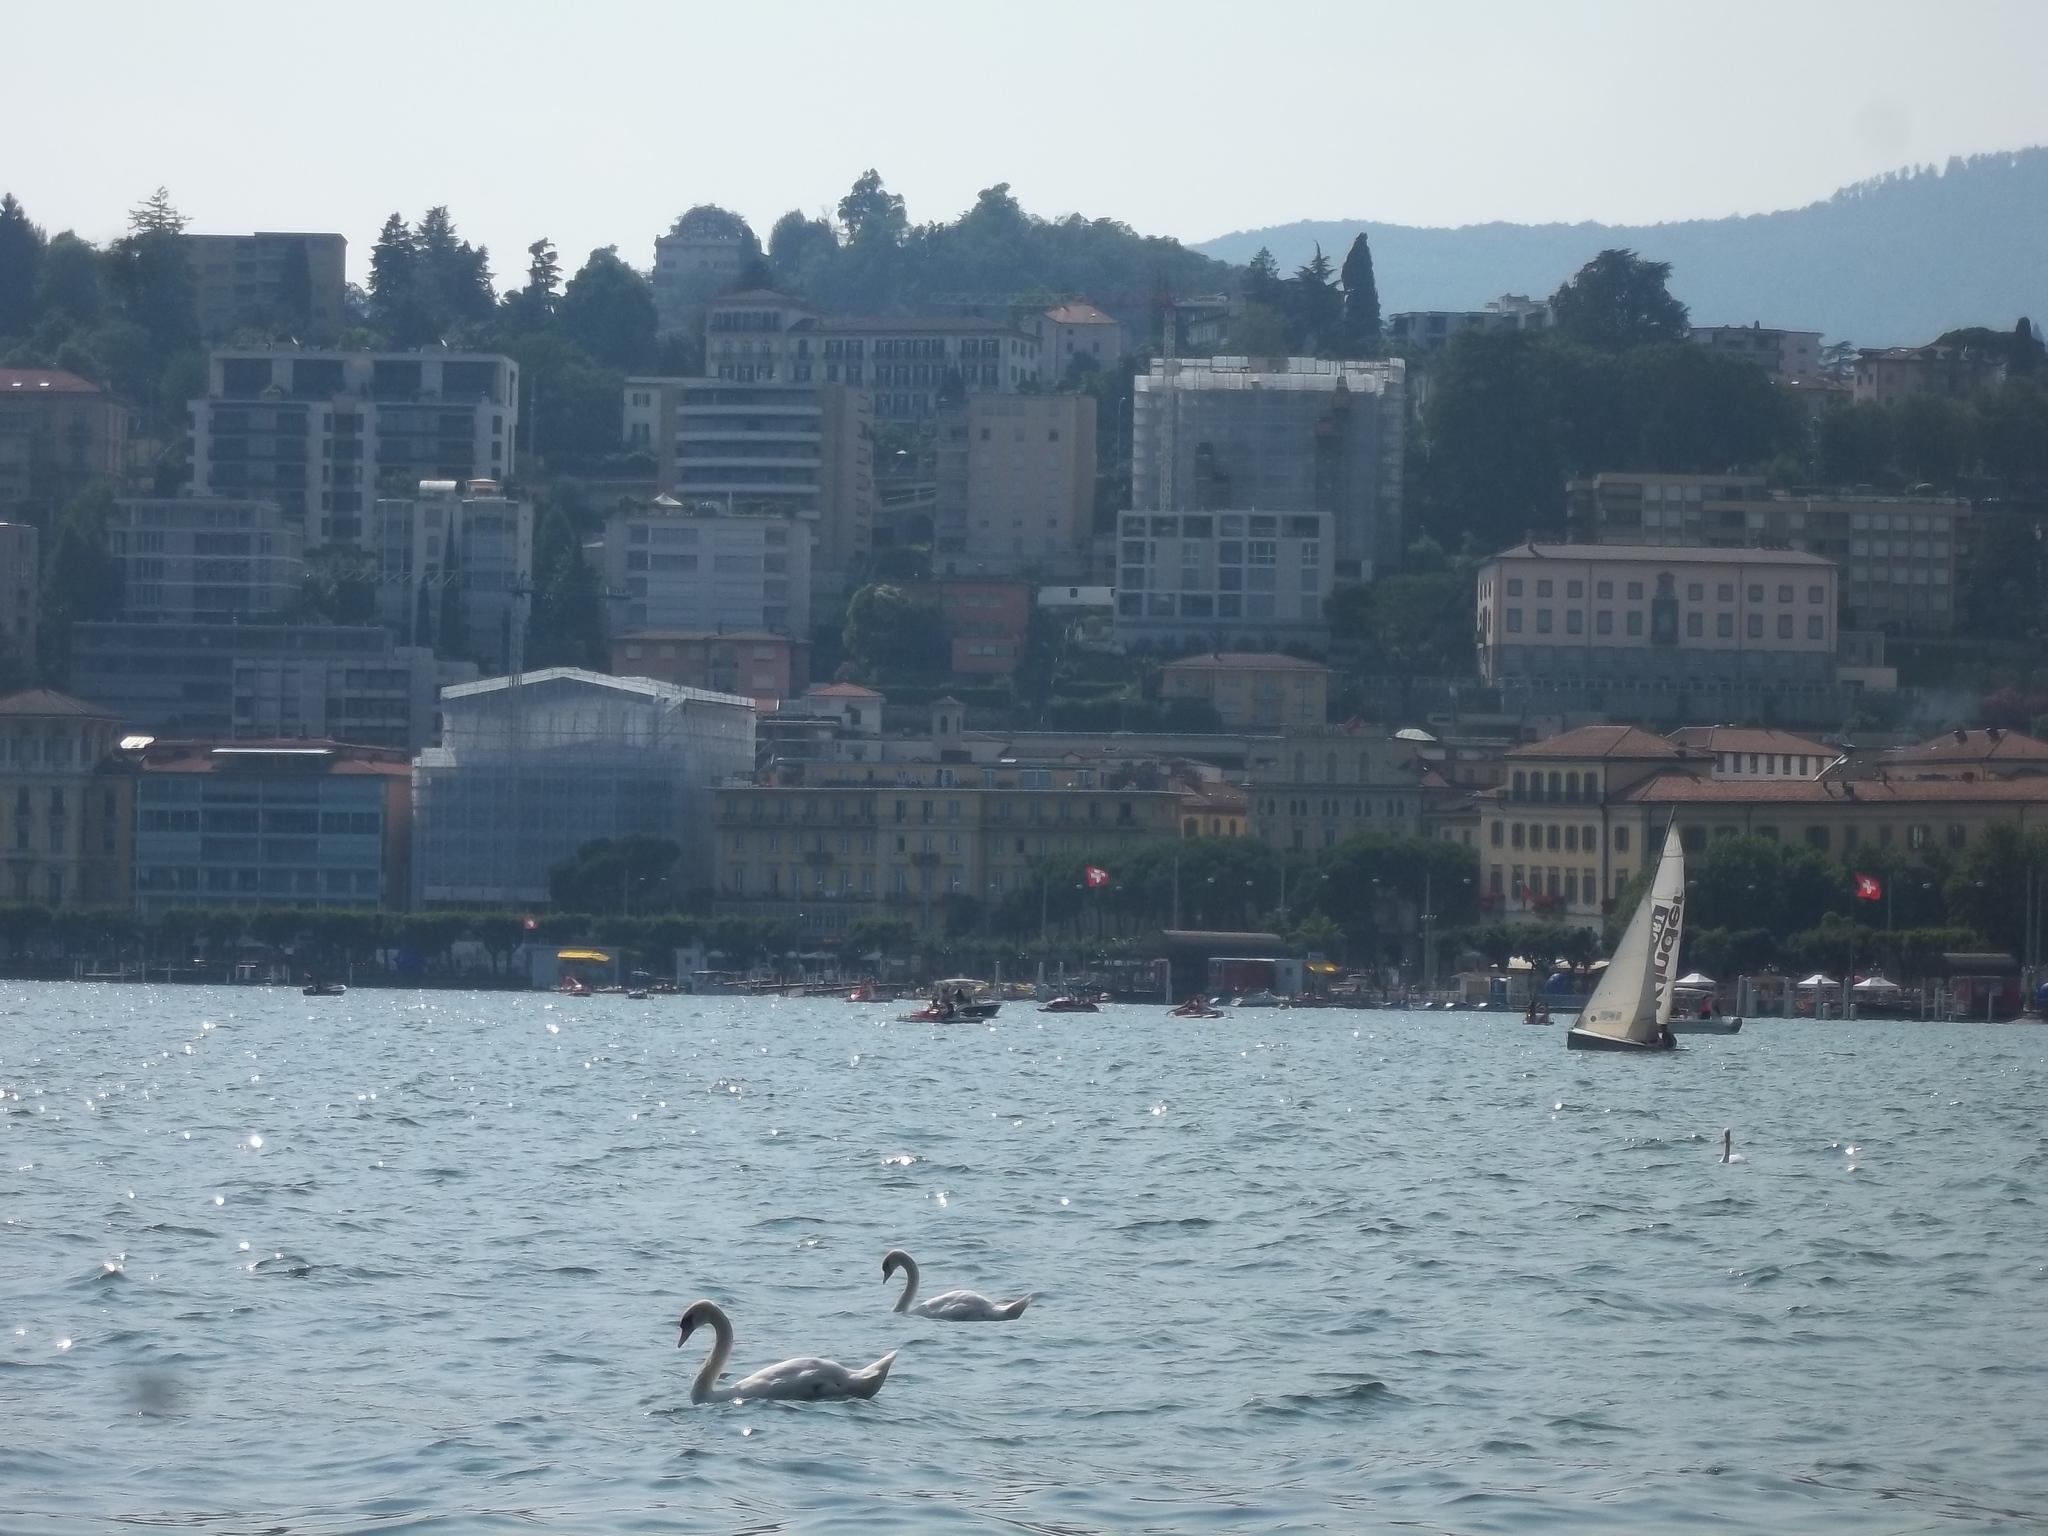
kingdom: Animalia
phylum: Chordata
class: Aves
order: Anseriformes
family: Anatidae
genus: Cygnus
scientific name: Cygnus olor
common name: Mute swan
